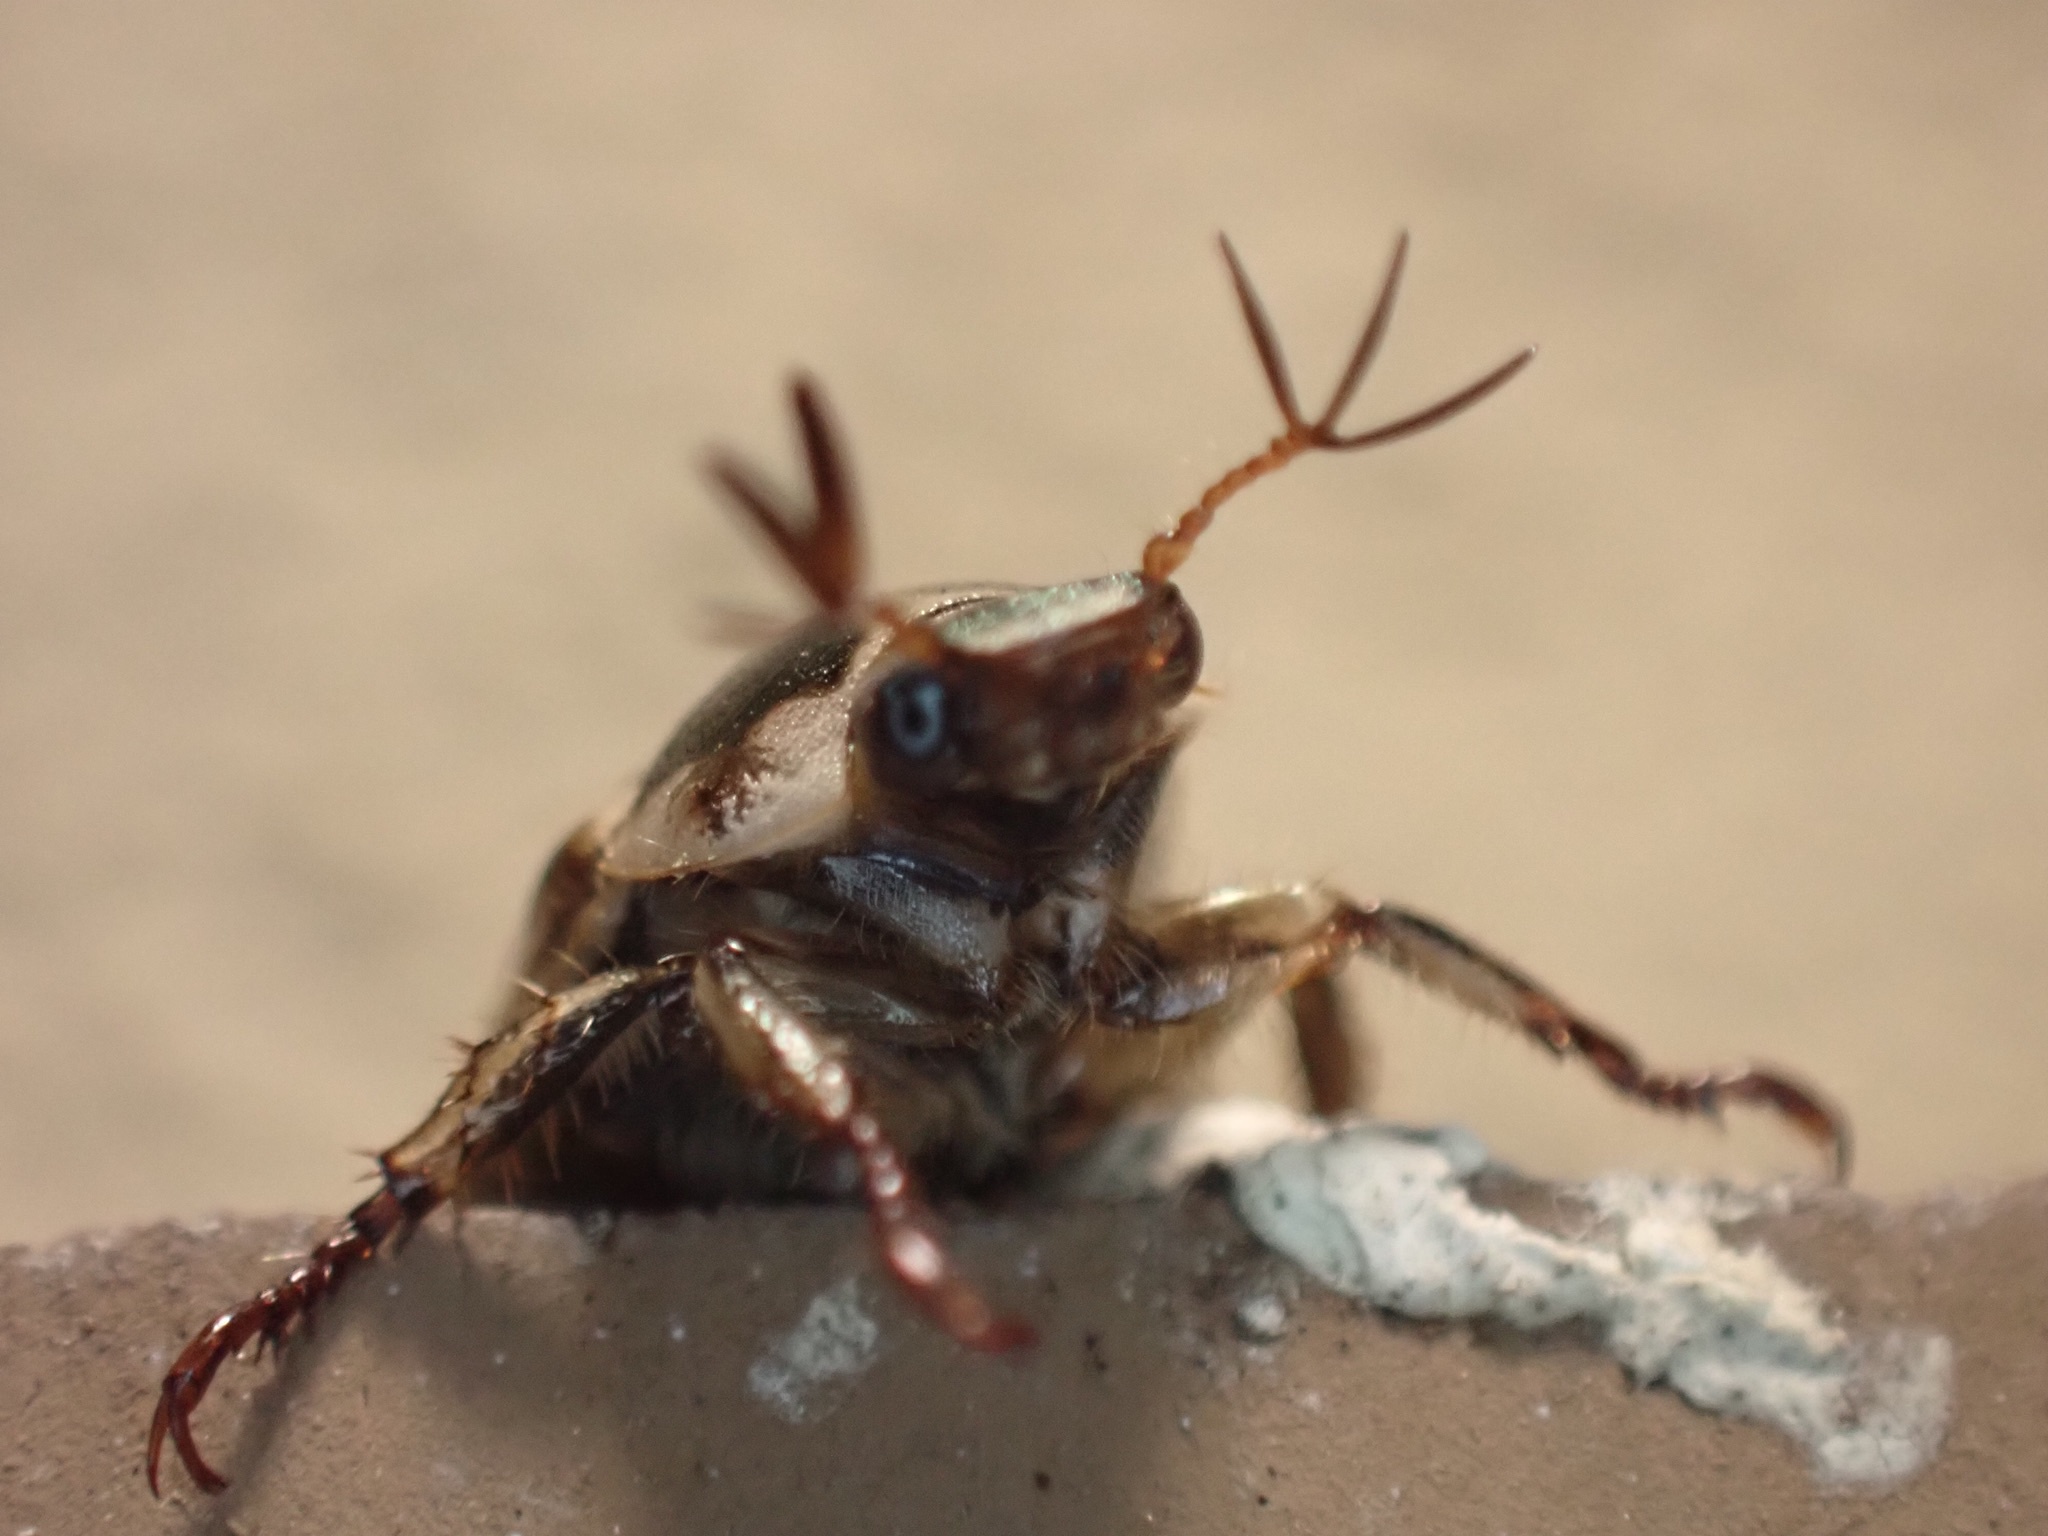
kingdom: Animalia
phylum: Arthropoda
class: Insecta
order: Coleoptera
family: Scarabaeidae
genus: Exomala
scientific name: Exomala orientalis
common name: Oriental beetle
